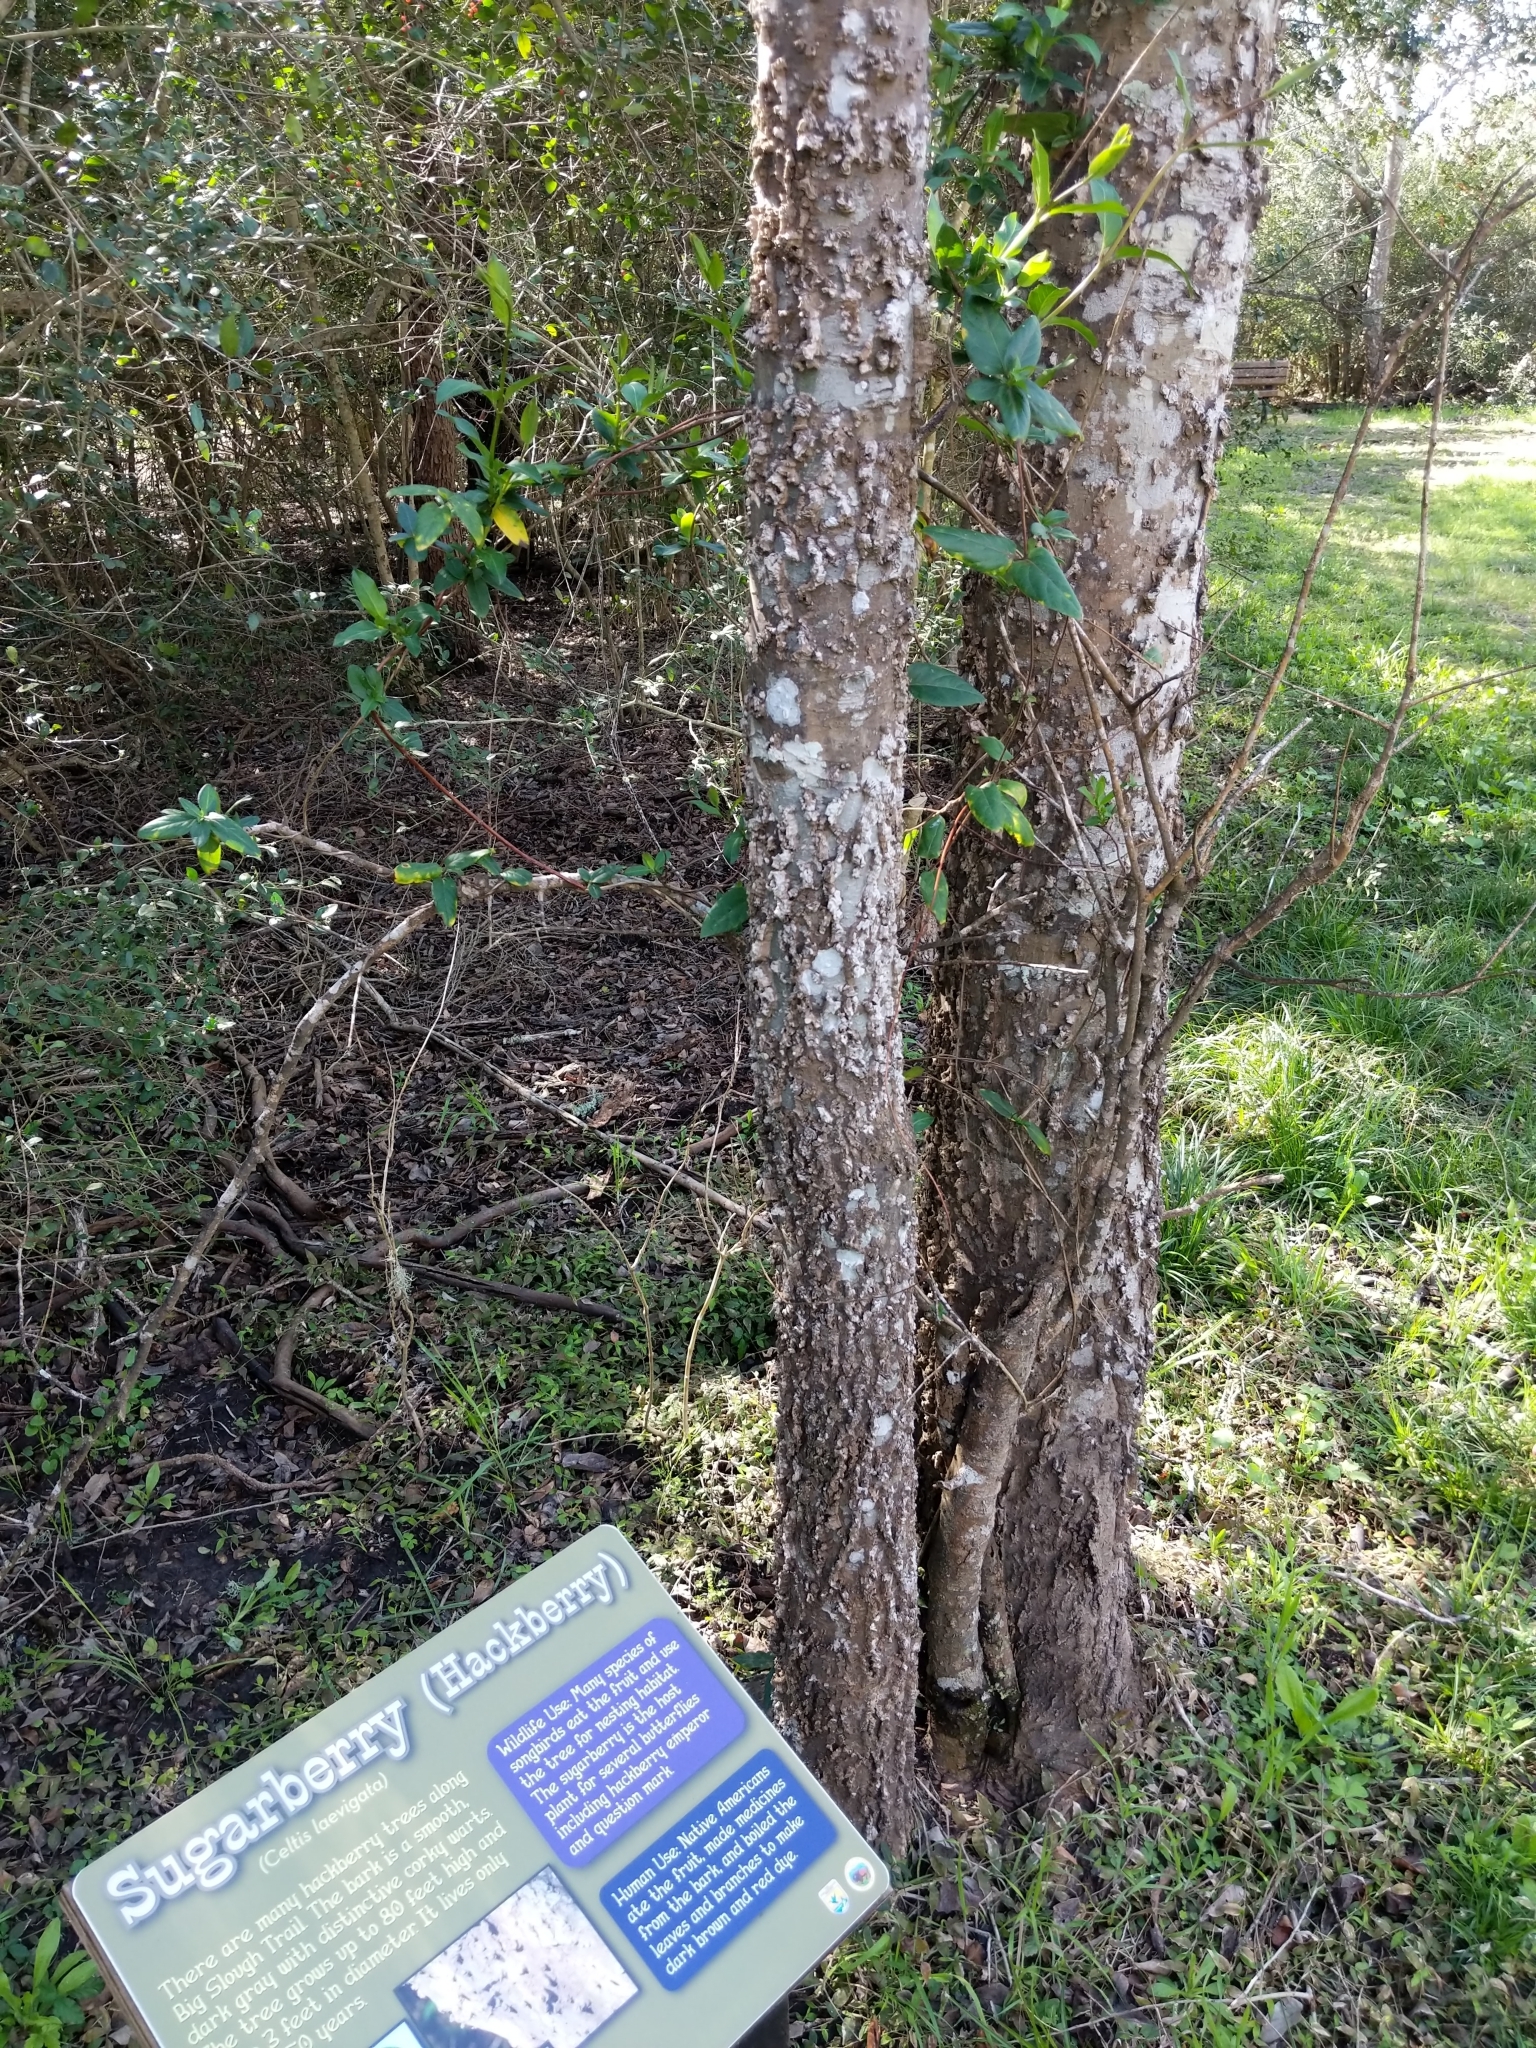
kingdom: Plantae
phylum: Tracheophyta
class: Magnoliopsida
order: Rosales
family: Cannabaceae
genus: Celtis
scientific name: Celtis laevigata
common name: Sugarberry
